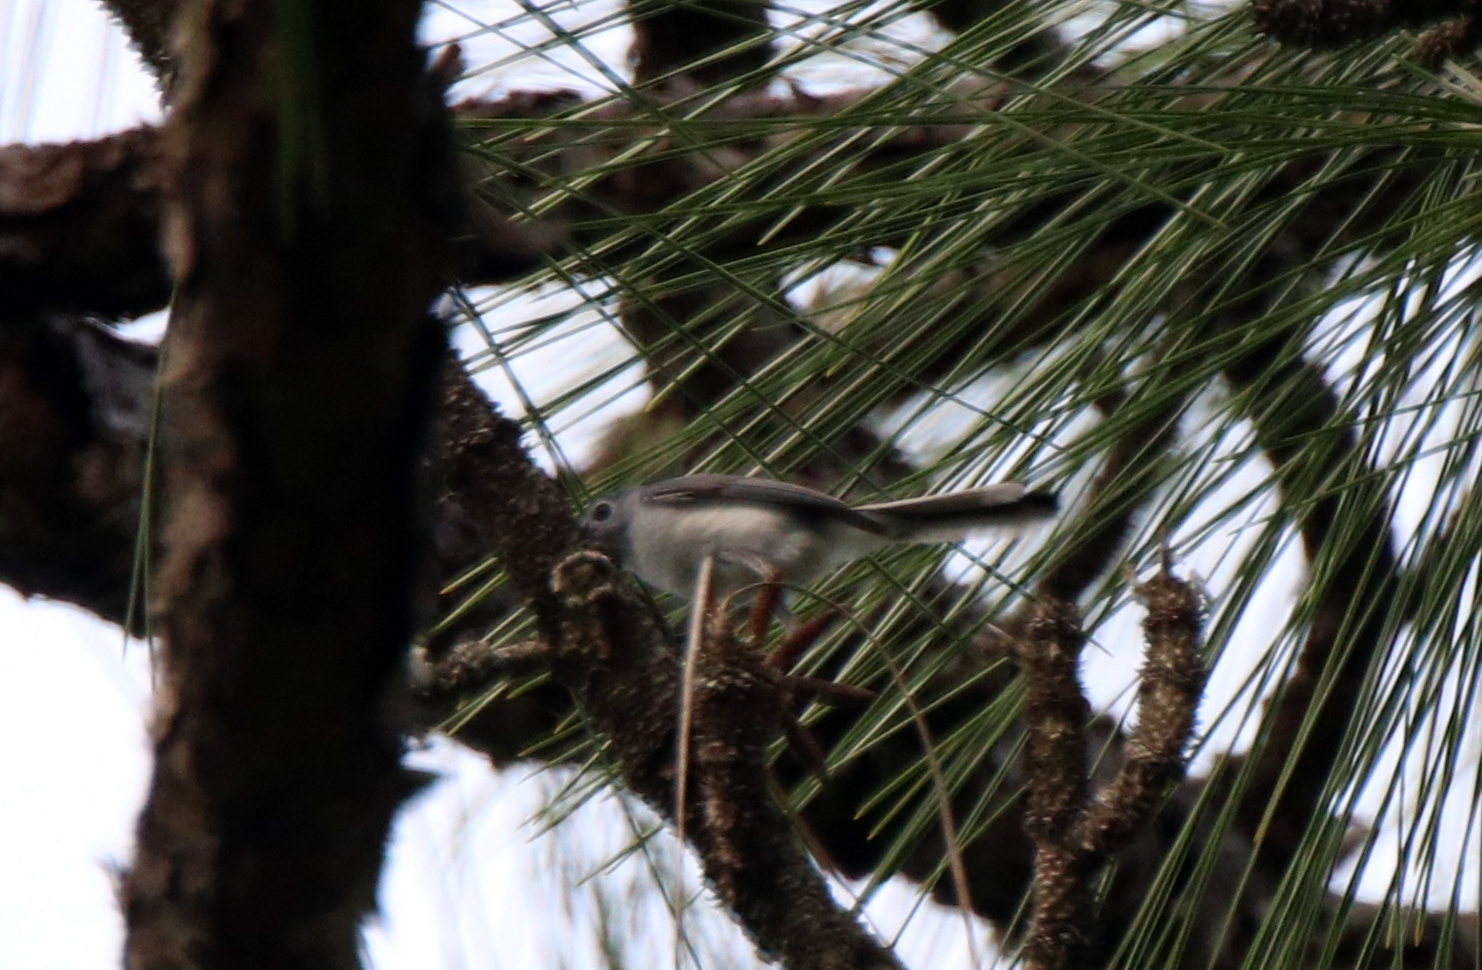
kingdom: Animalia
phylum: Chordata
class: Aves
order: Passeriformes
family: Polioptilidae
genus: Polioptila
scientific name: Polioptila caerulea
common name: Blue-gray gnatcatcher
